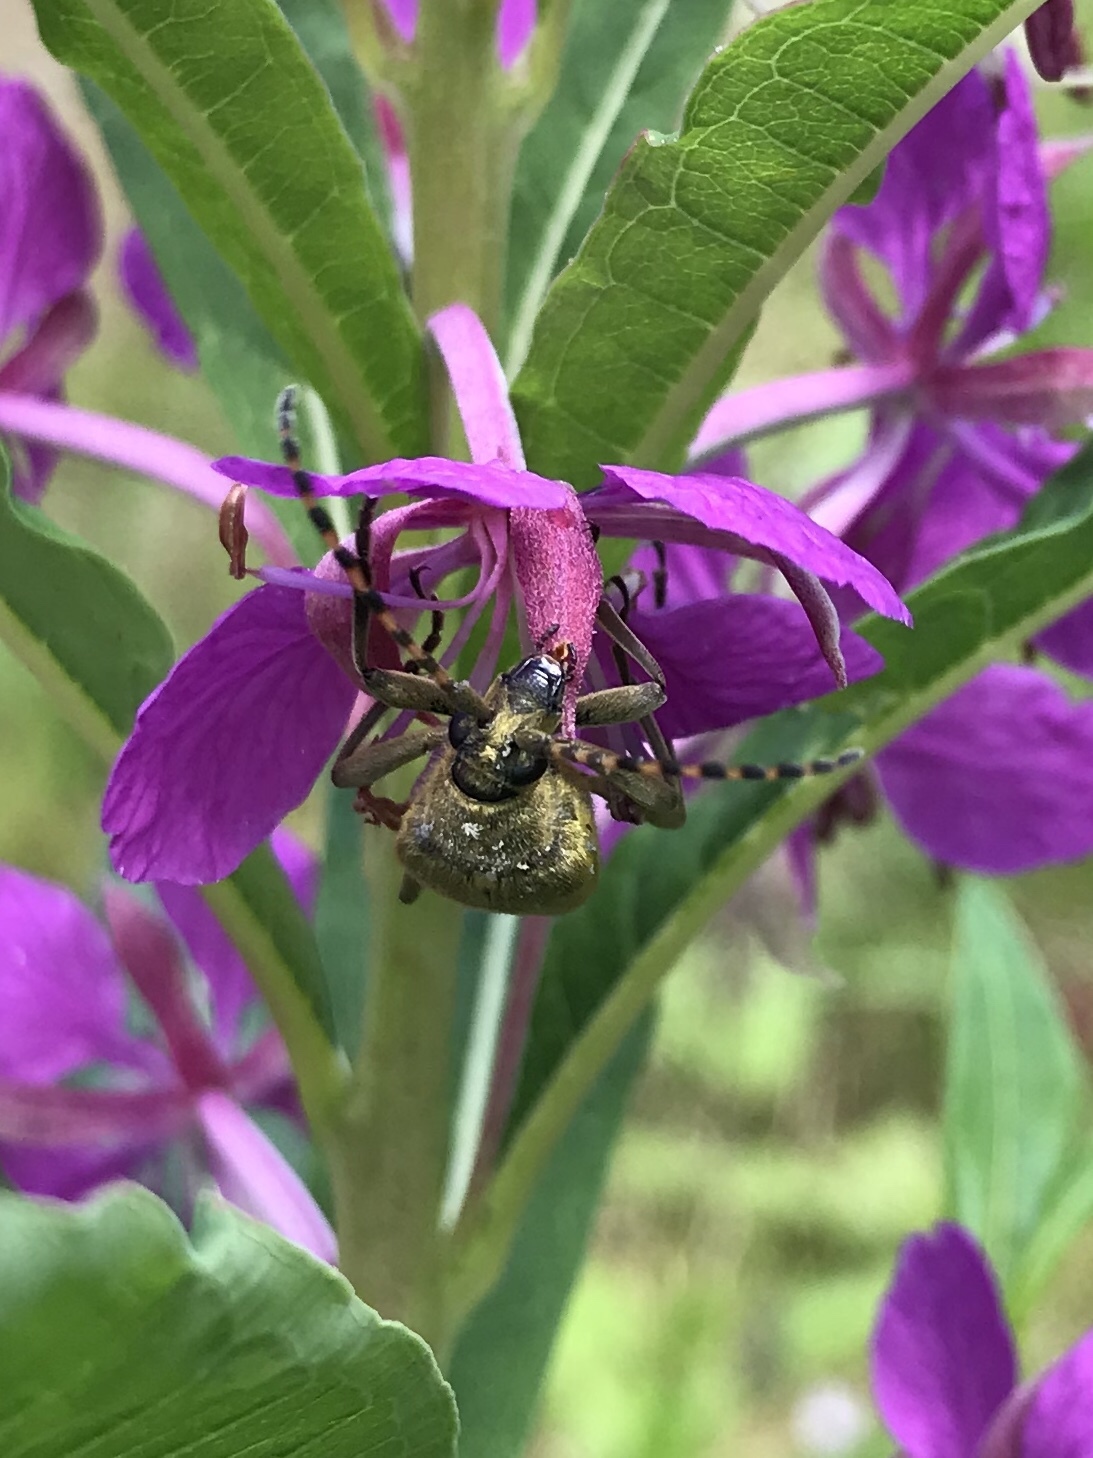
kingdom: Animalia
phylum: Arthropoda
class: Insecta
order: Coleoptera
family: Cerambycidae
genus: Lepturobosca
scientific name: Lepturobosca virens
